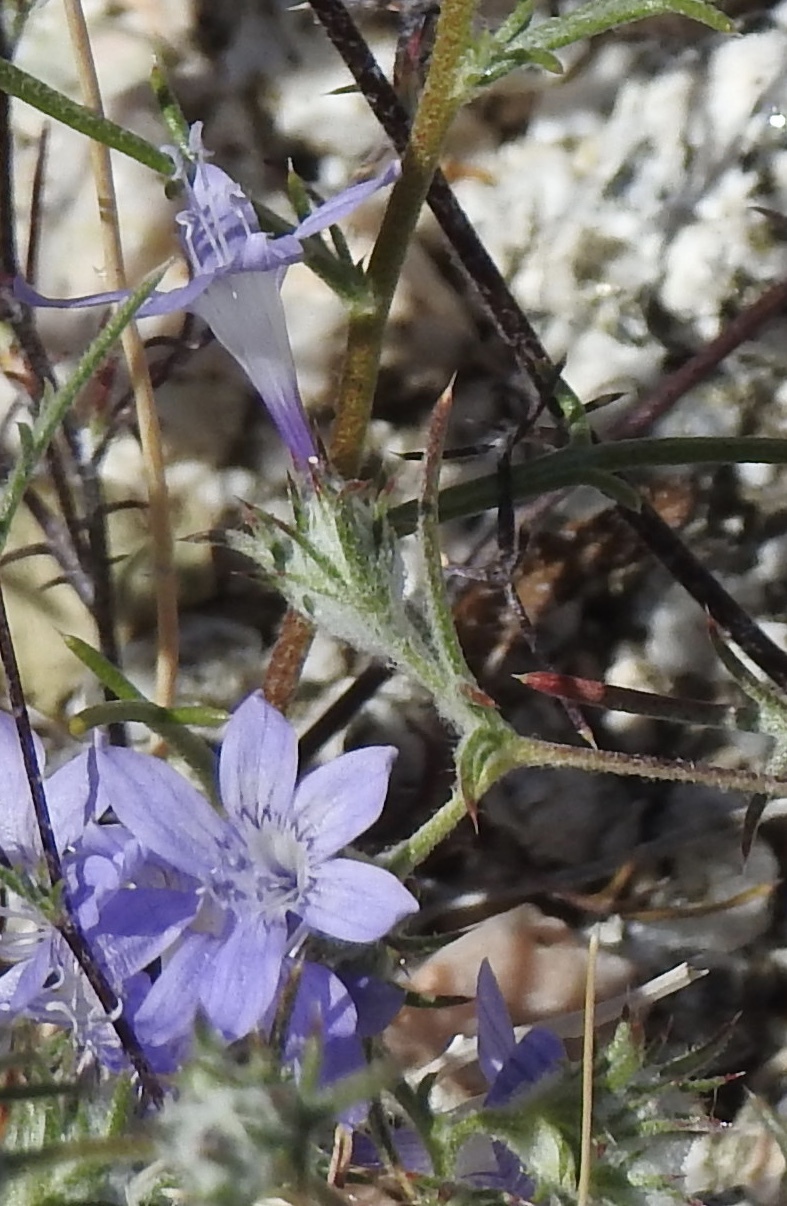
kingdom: Plantae
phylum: Tracheophyta
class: Magnoliopsida
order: Ericales
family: Polemoniaceae
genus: Eriastrum
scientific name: Eriastrum eremicum
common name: Desert eriastrum
